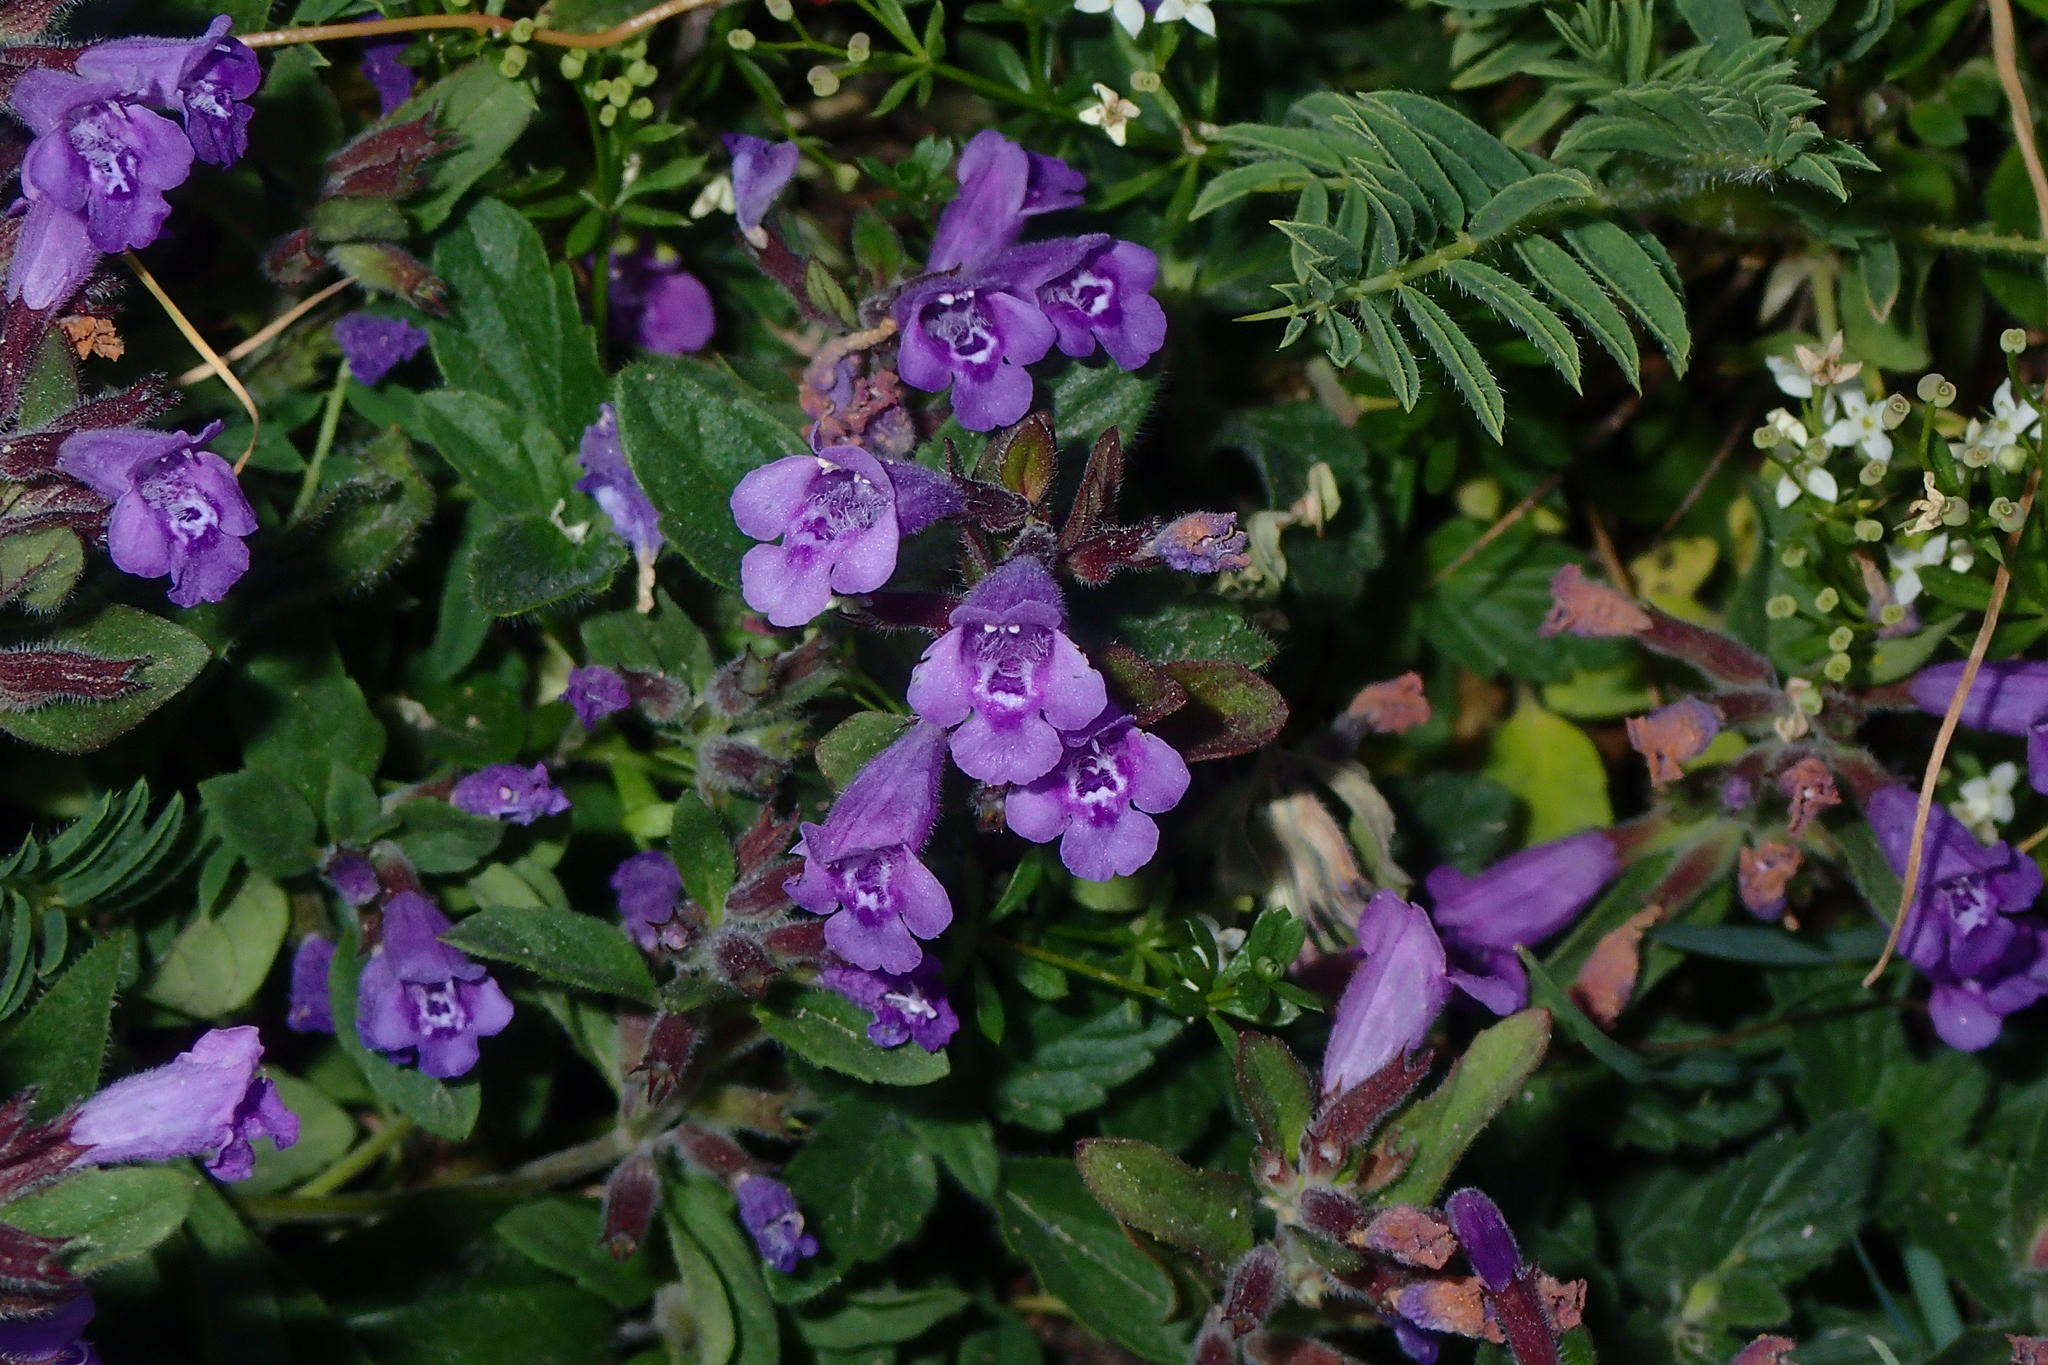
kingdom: Plantae
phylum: Tracheophyta
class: Magnoliopsida
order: Lamiales
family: Lamiaceae
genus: Clinopodium
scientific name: Clinopodium alpinum
